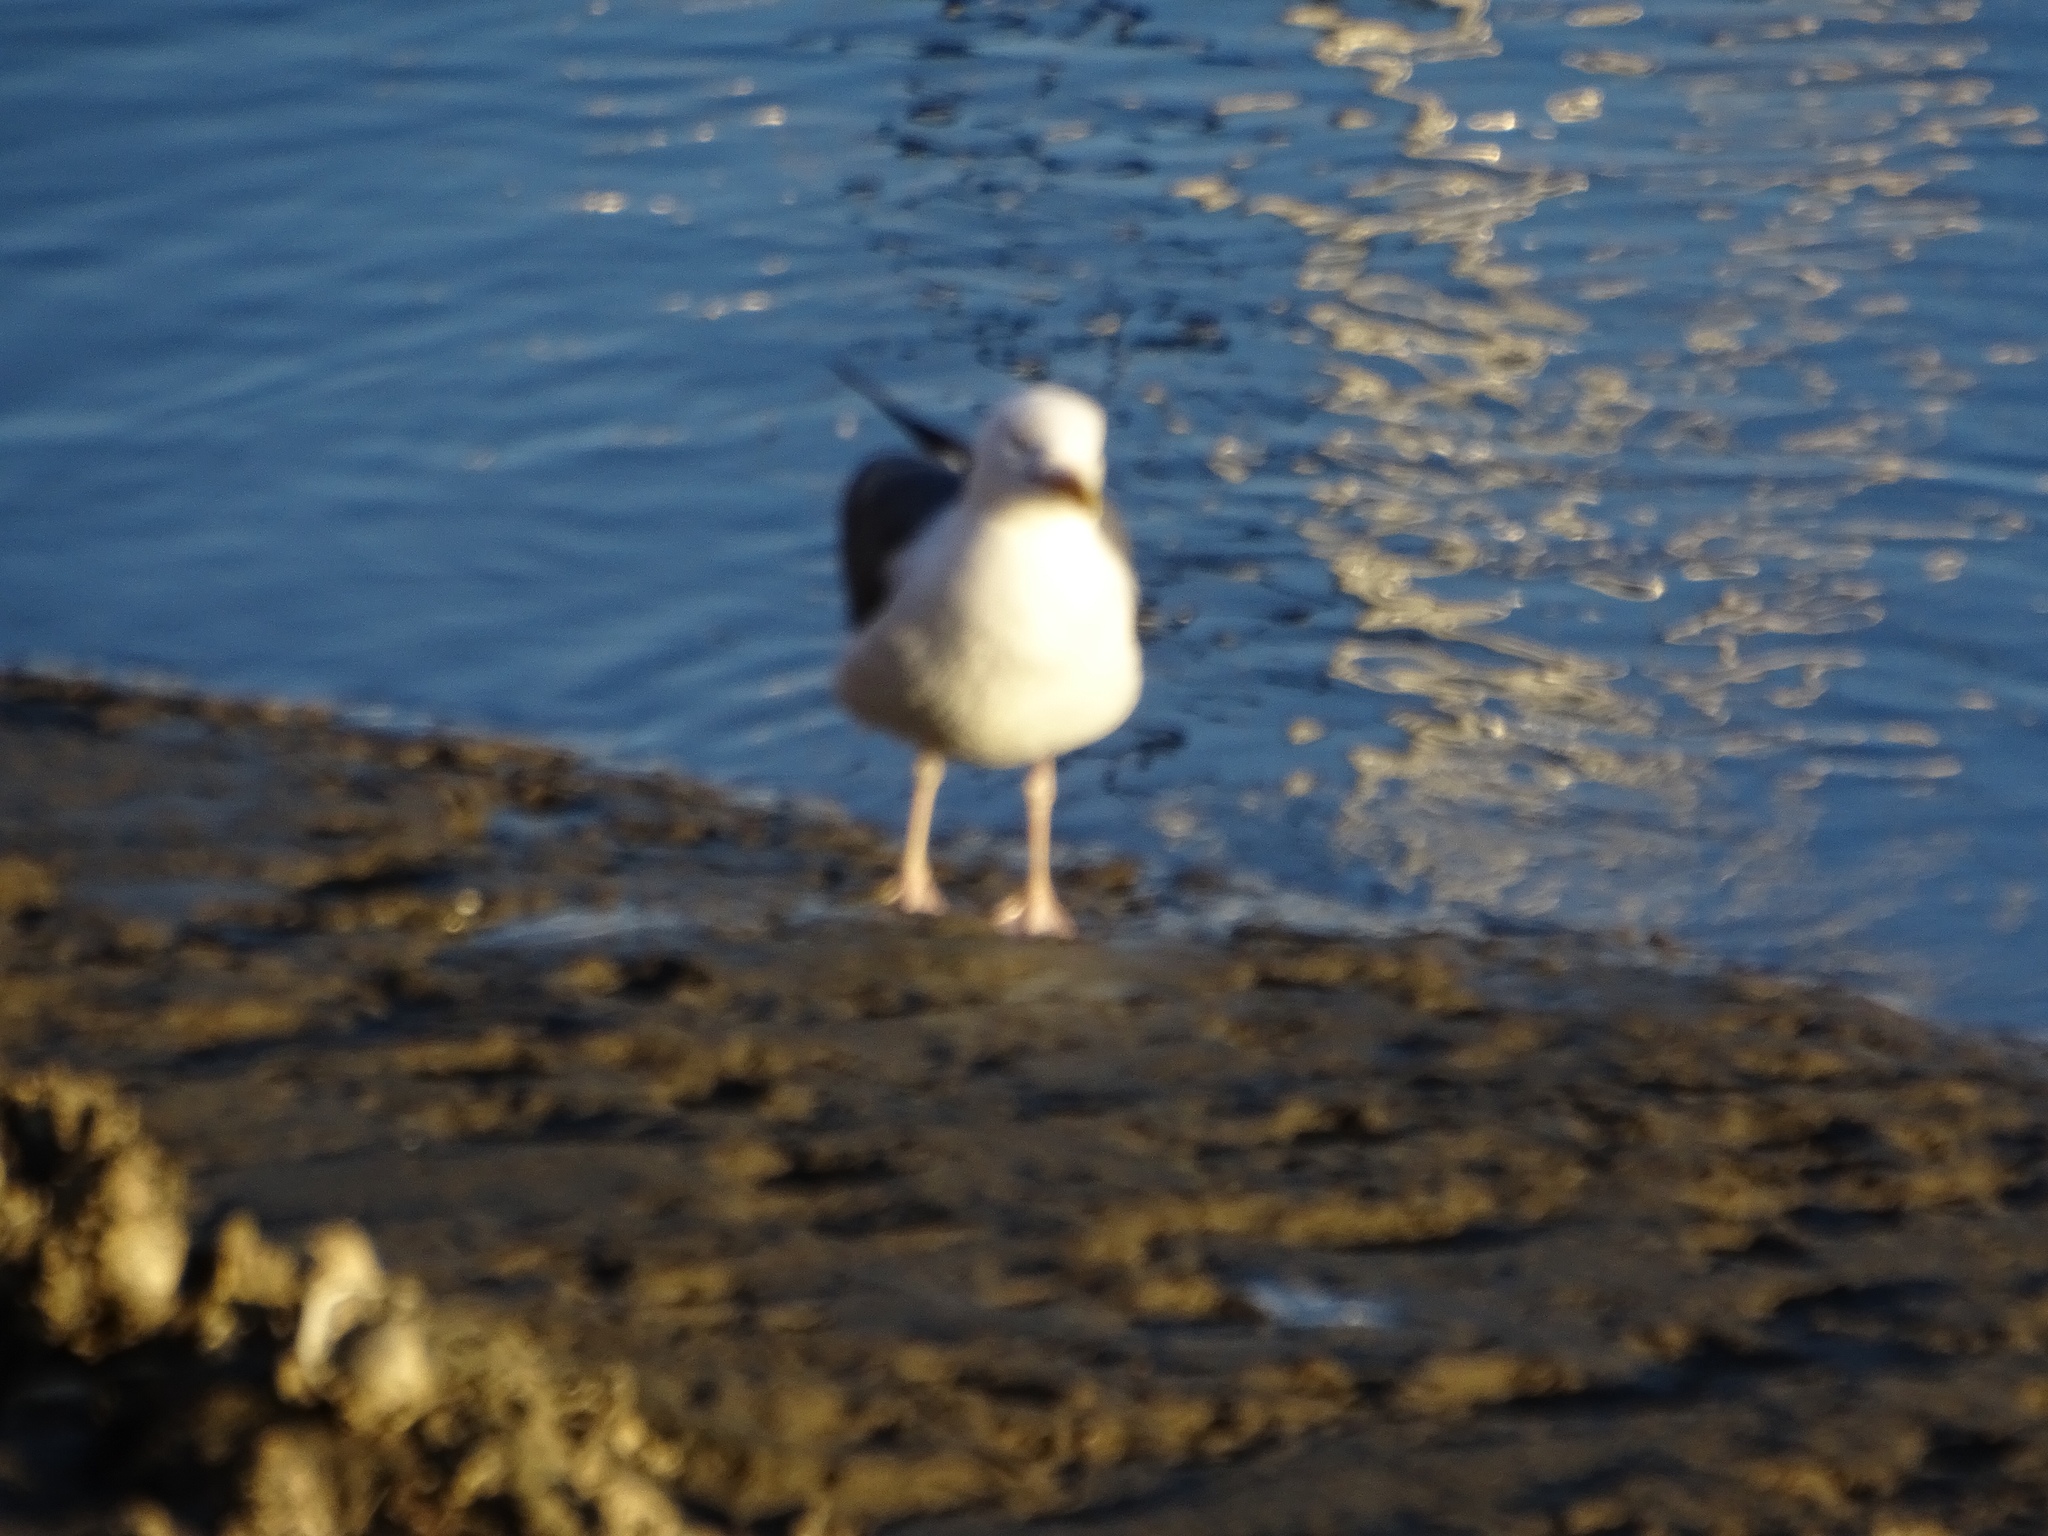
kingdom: Animalia
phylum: Chordata
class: Aves
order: Charadriiformes
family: Laridae
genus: Larus
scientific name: Larus occidentalis
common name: Western gull
